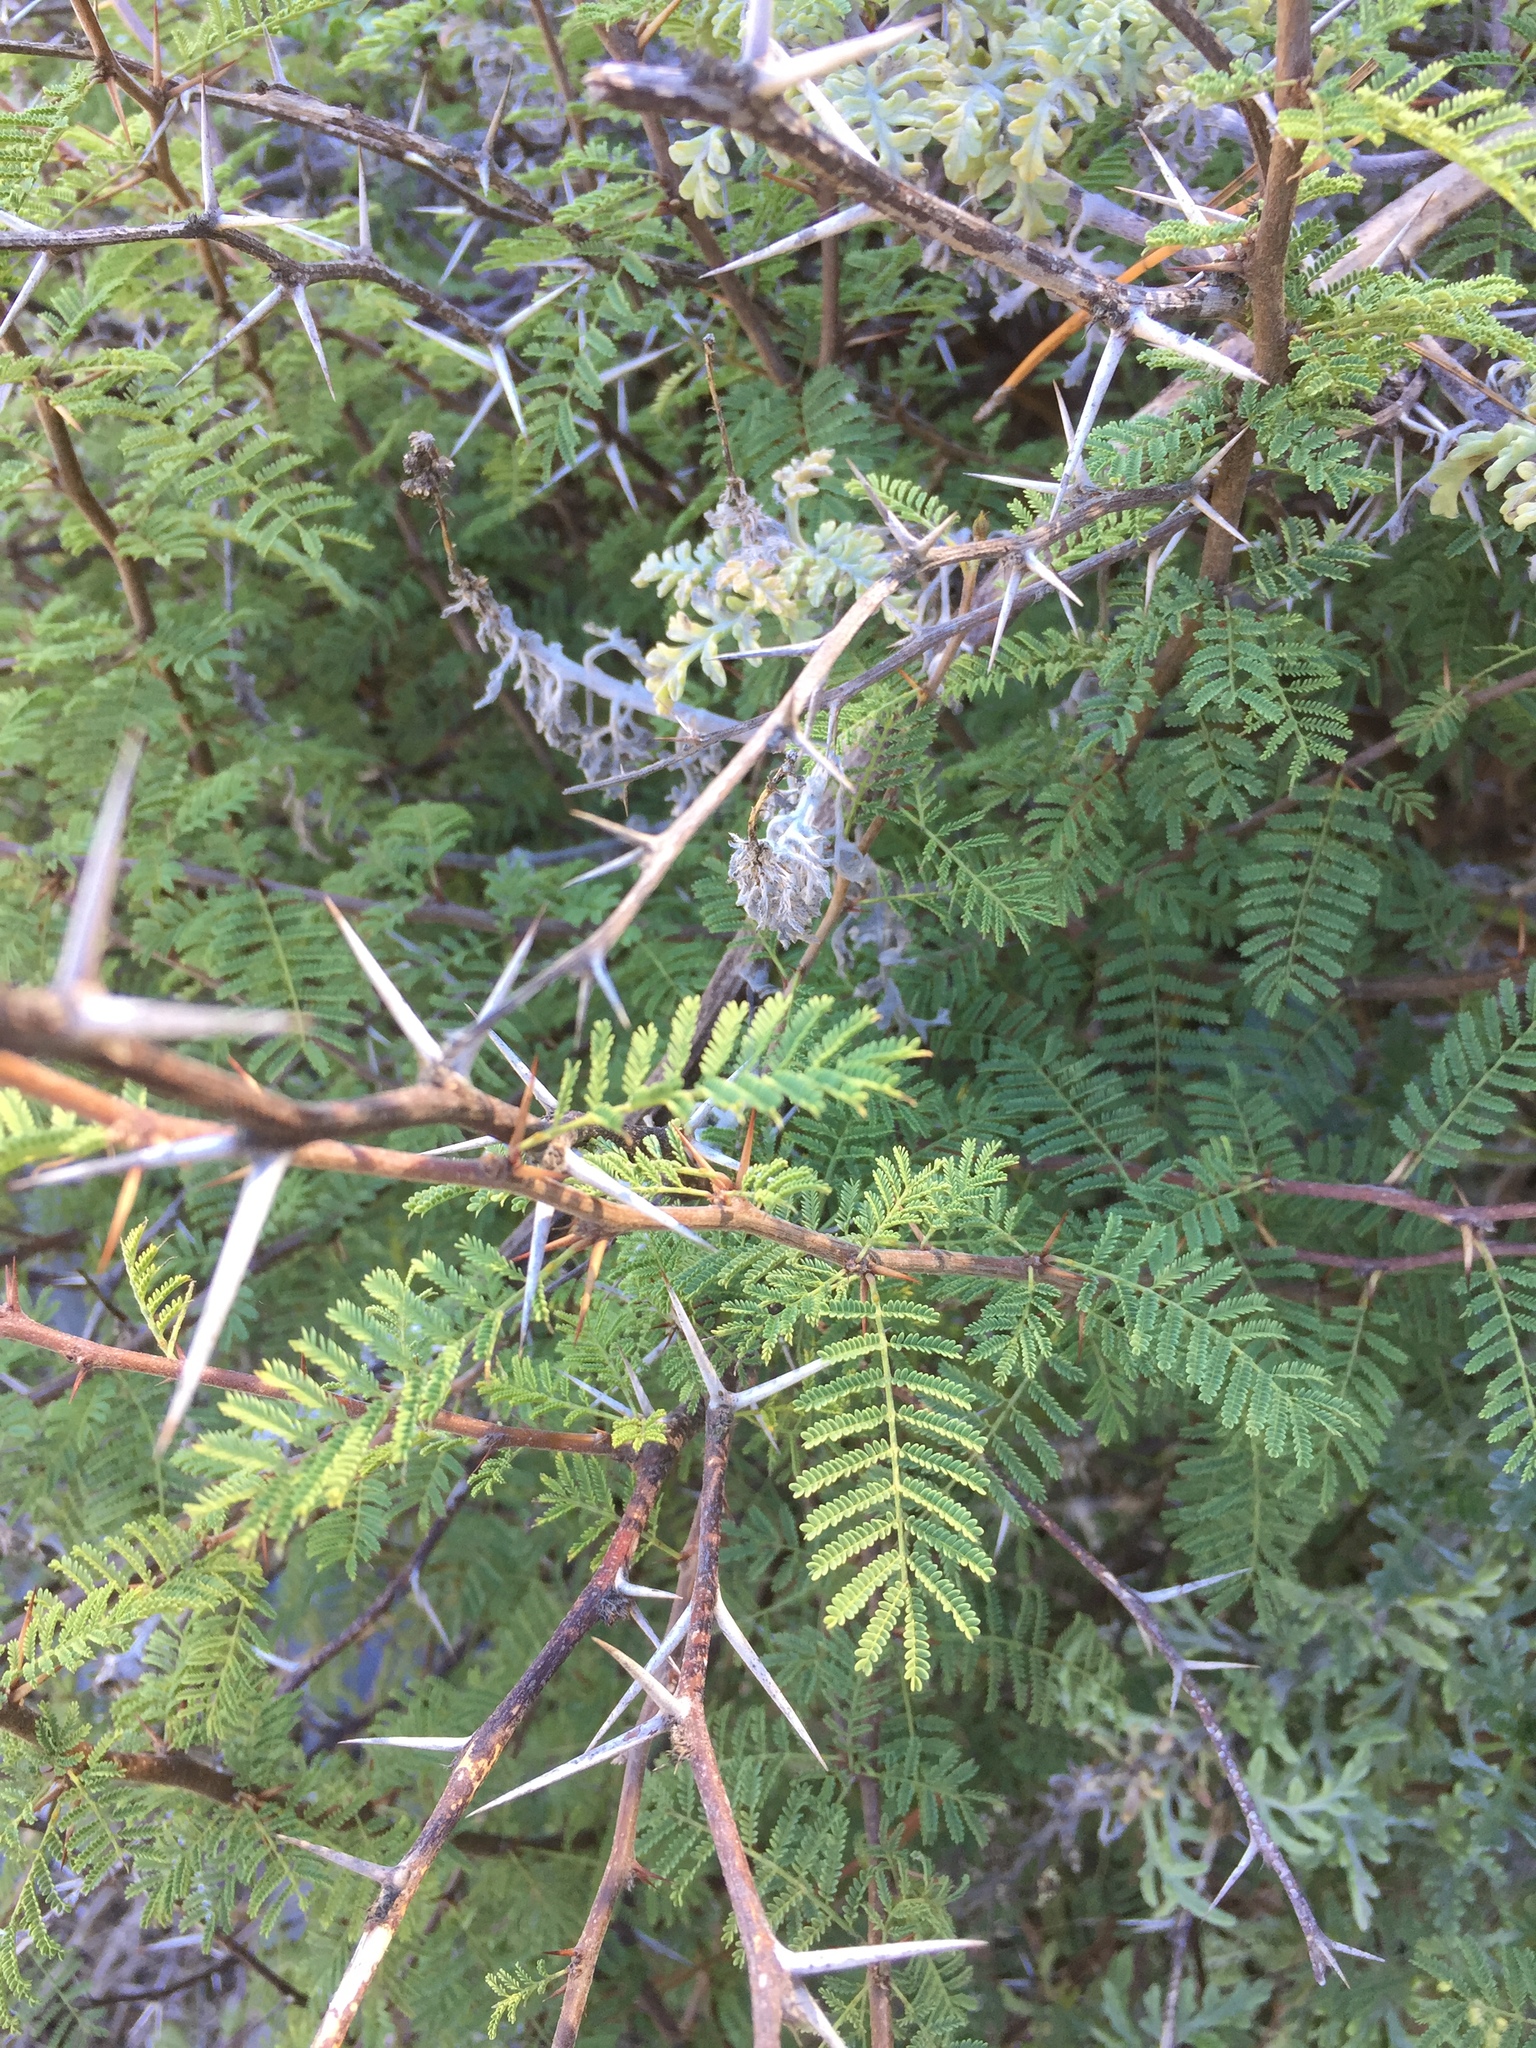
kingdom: Plantae
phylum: Tracheophyta
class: Magnoliopsida
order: Fabales
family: Fabaceae
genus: Vachellia
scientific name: Vachellia caven
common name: Roman cassie
